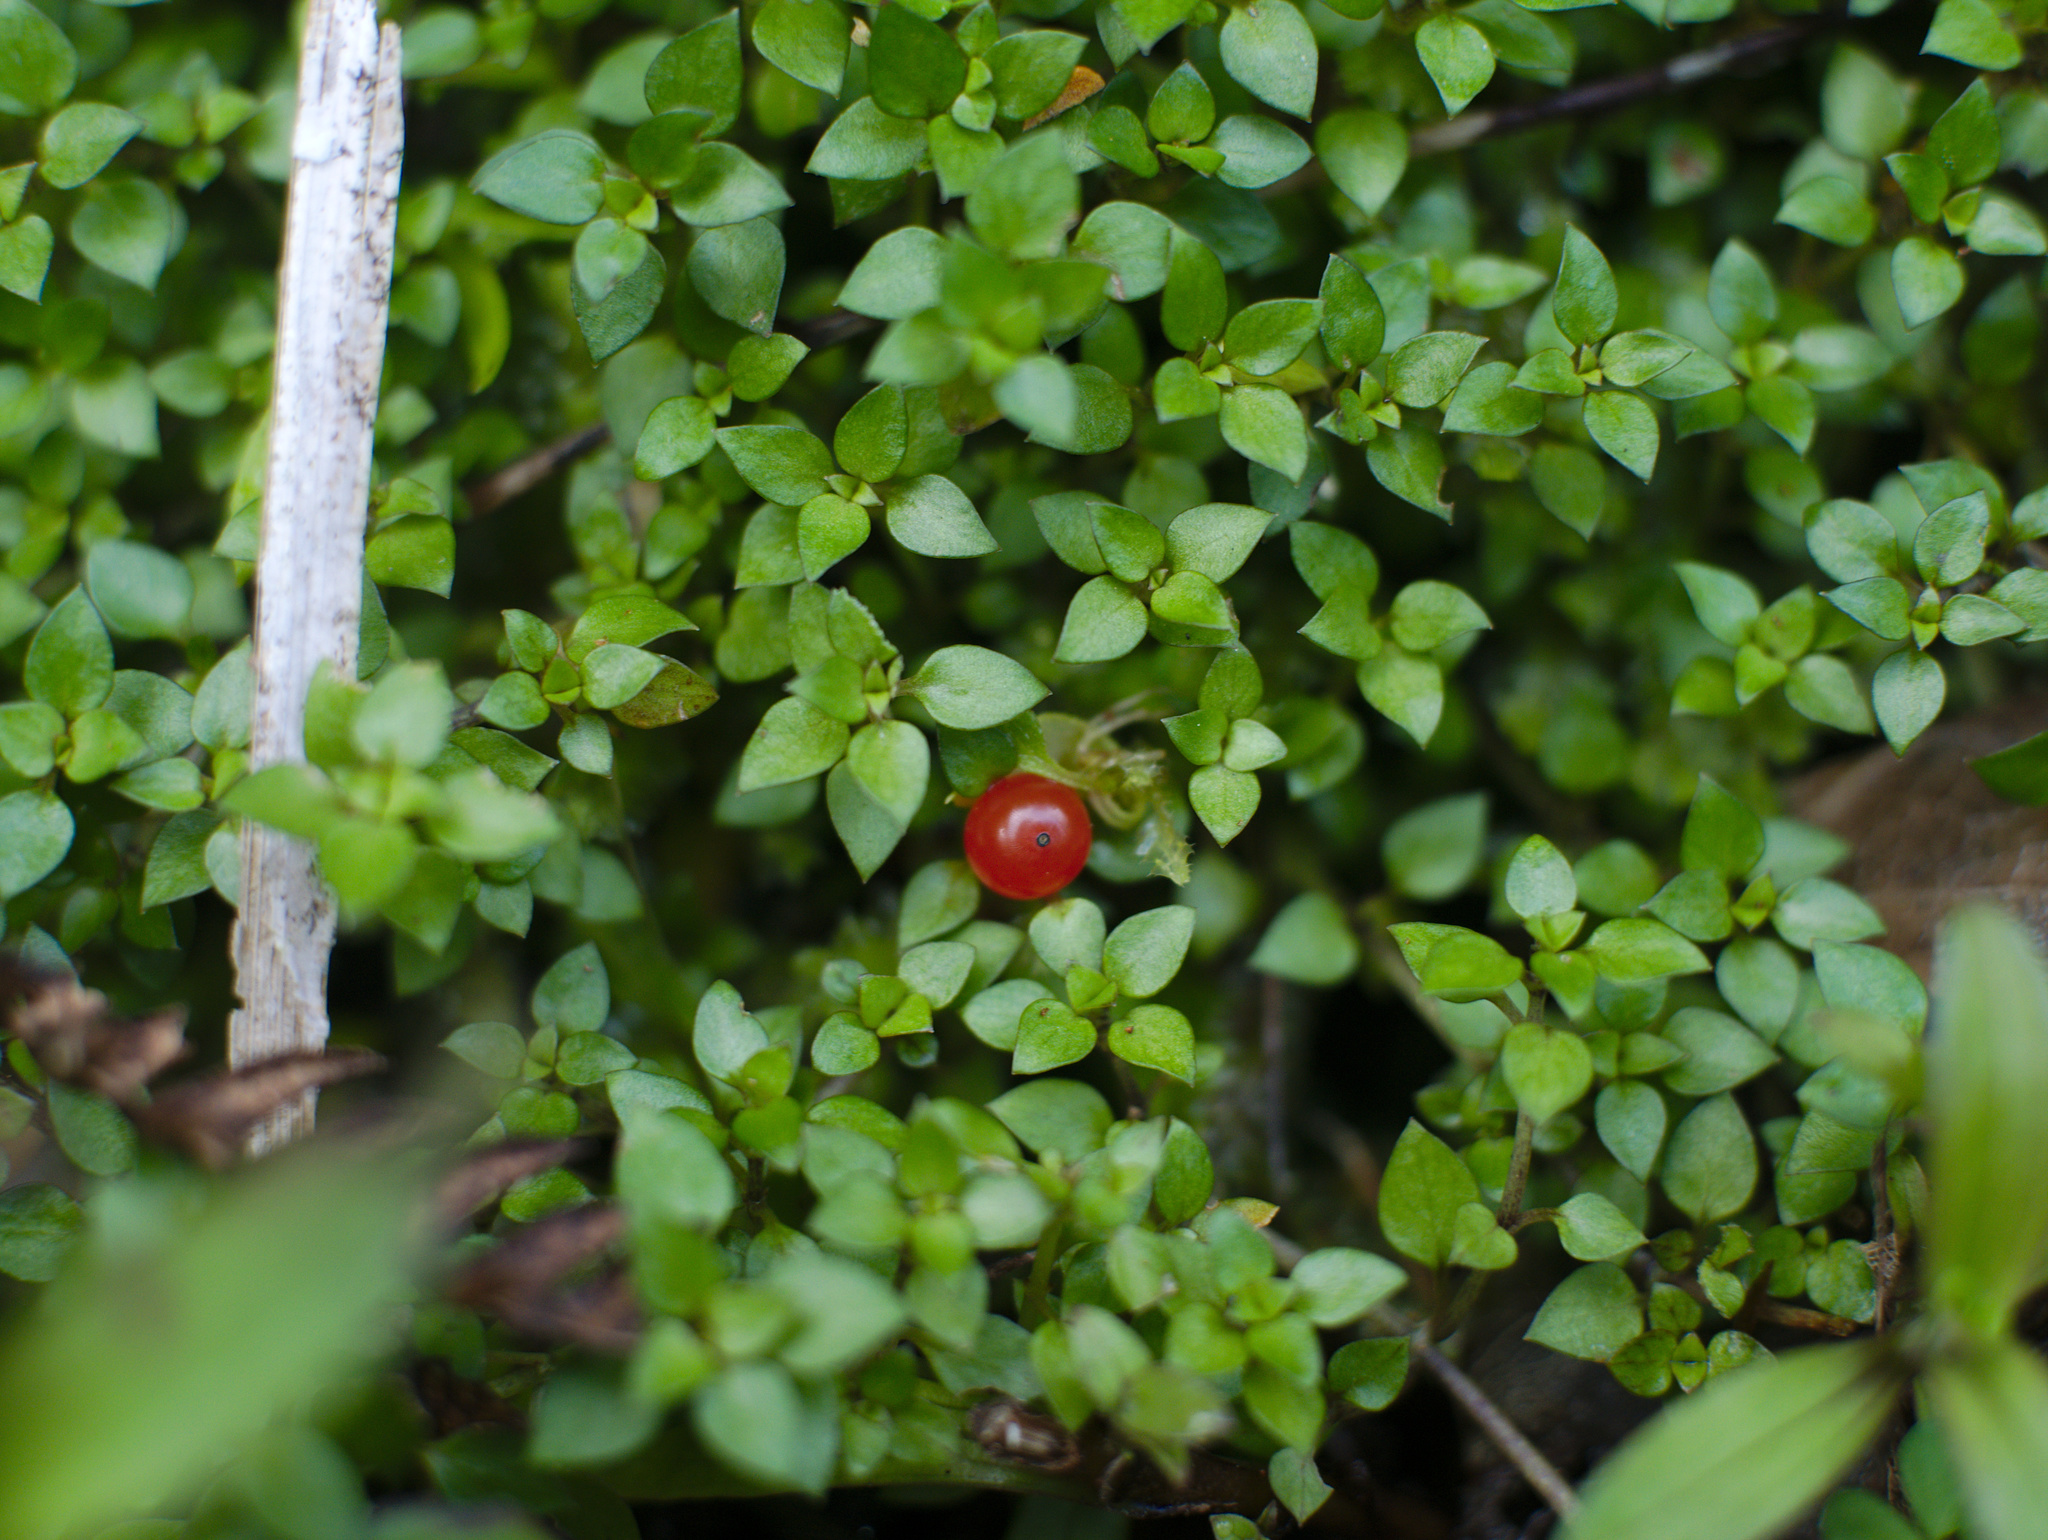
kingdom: Plantae
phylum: Tracheophyta
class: Magnoliopsida
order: Gentianales
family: Rubiaceae
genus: Nertera
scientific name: Nertera granadensis
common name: Beadplant
